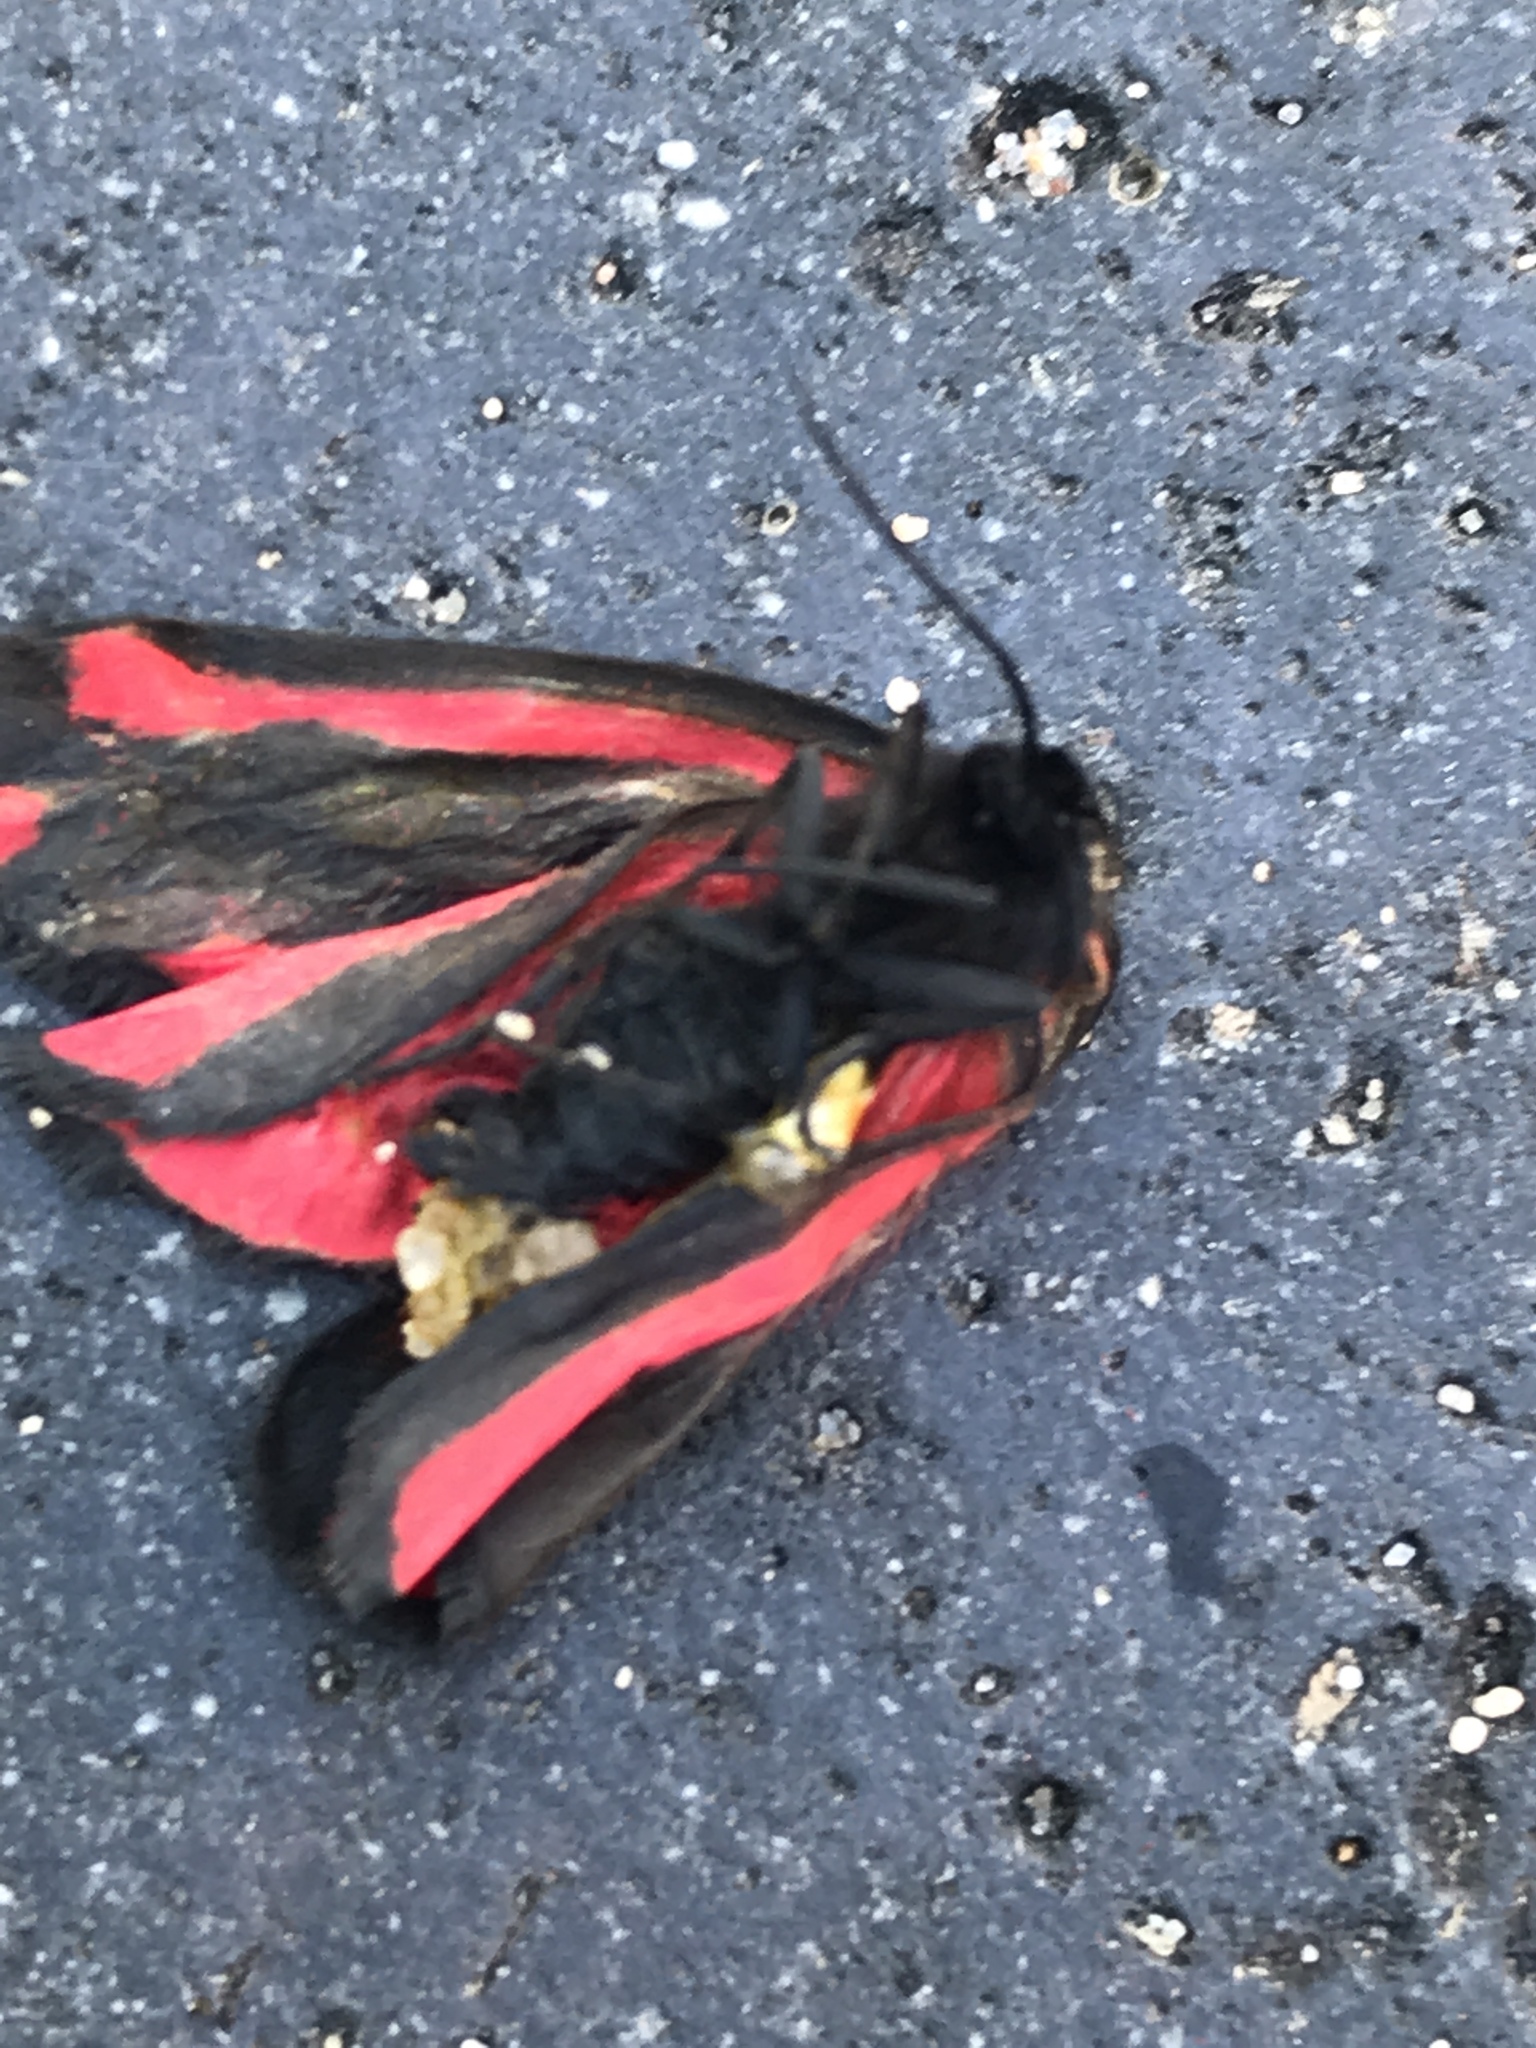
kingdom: Animalia
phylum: Arthropoda
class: Insecta
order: Lepidoptera
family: Erebidae
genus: Tyria
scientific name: Tyria jacobaeae
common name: Cinnabar
